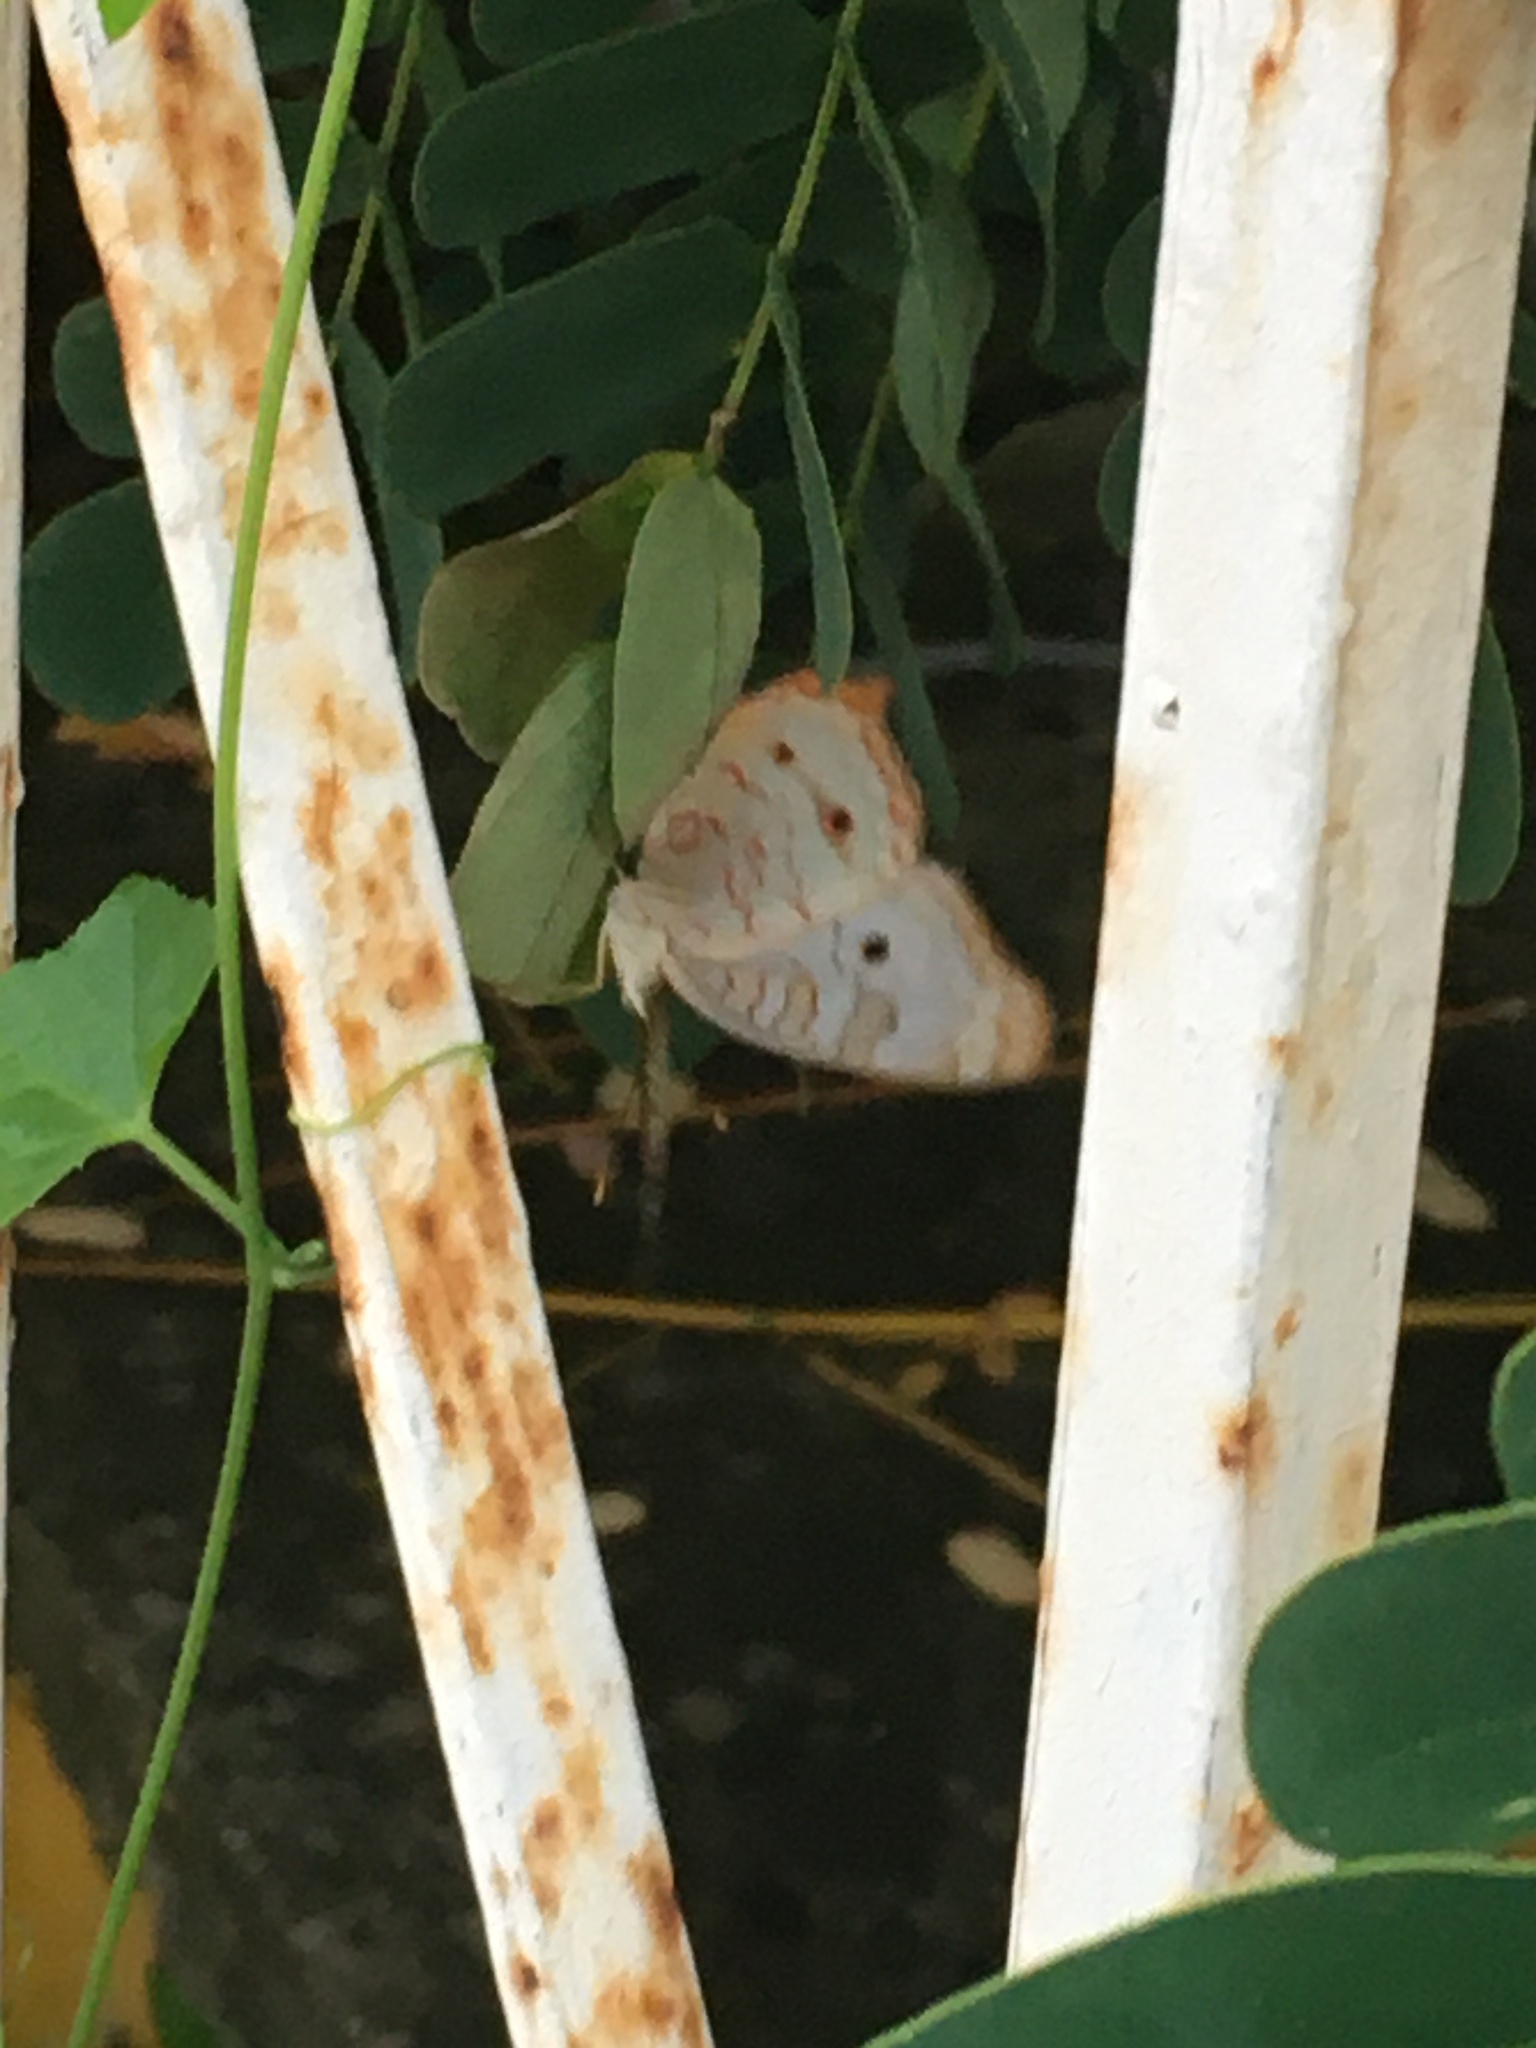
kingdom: Animalia
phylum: Arthropoda
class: Insecta
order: Lepidoptera
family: Nymphalidae
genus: Anartia
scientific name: Anartia jatrophae
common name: White peacock
